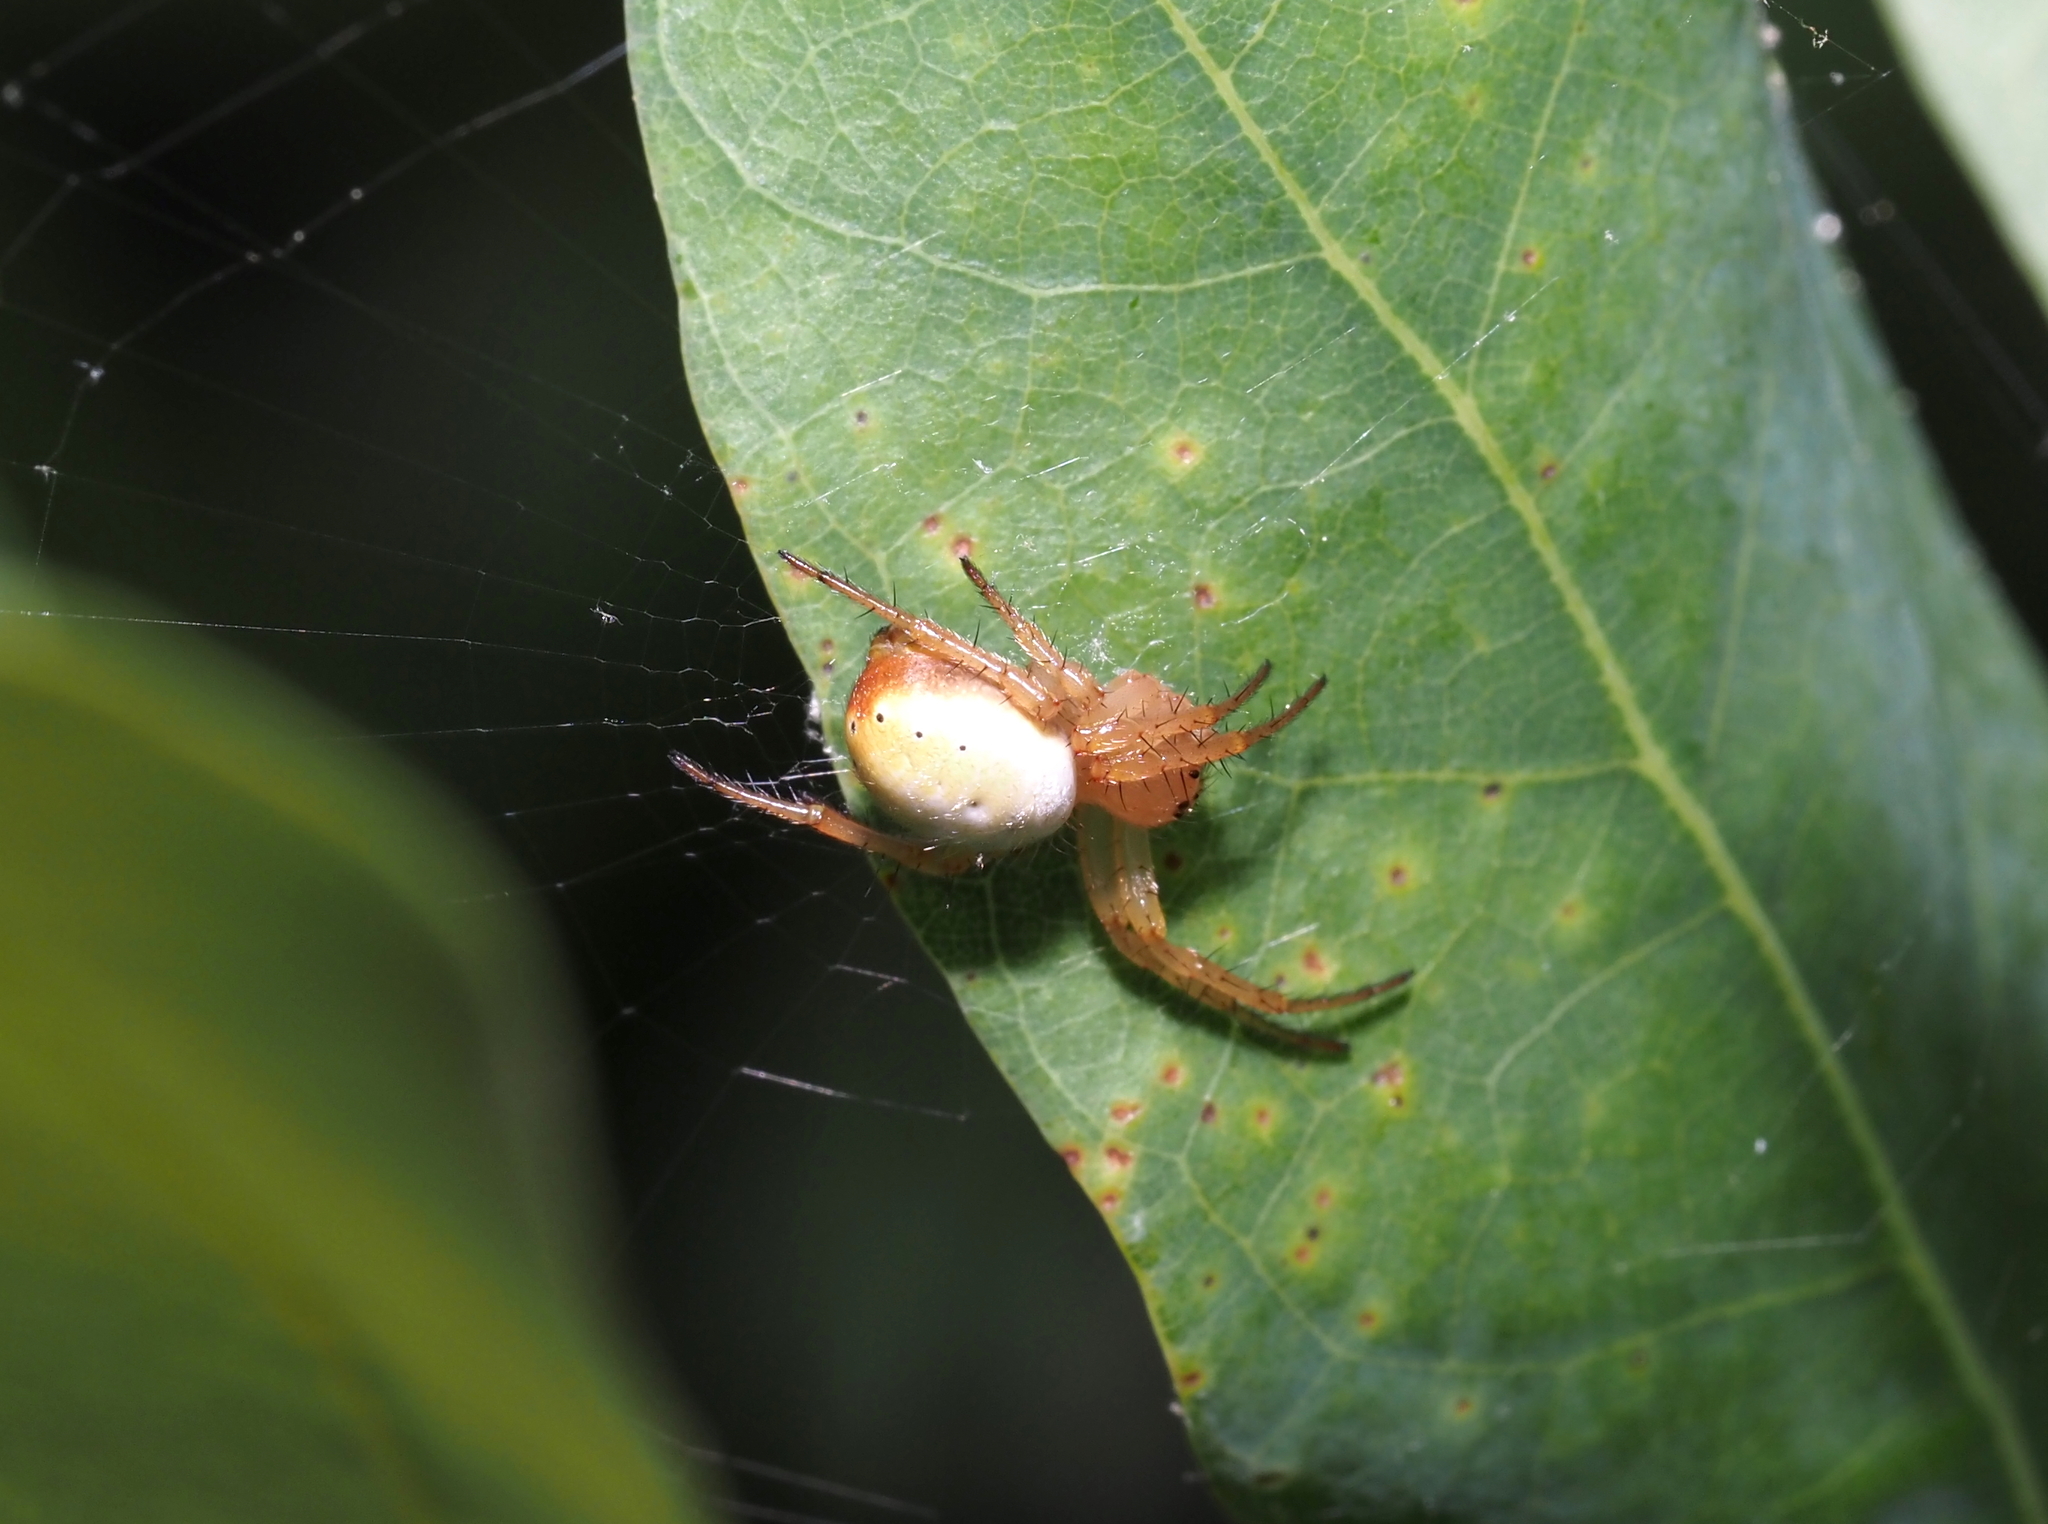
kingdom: Animalia
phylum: Arthropoda
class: Arachnida
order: Araneae
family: Araneidae
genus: Araniella
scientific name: Araniella displicata
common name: Sixspotted orb weaver
